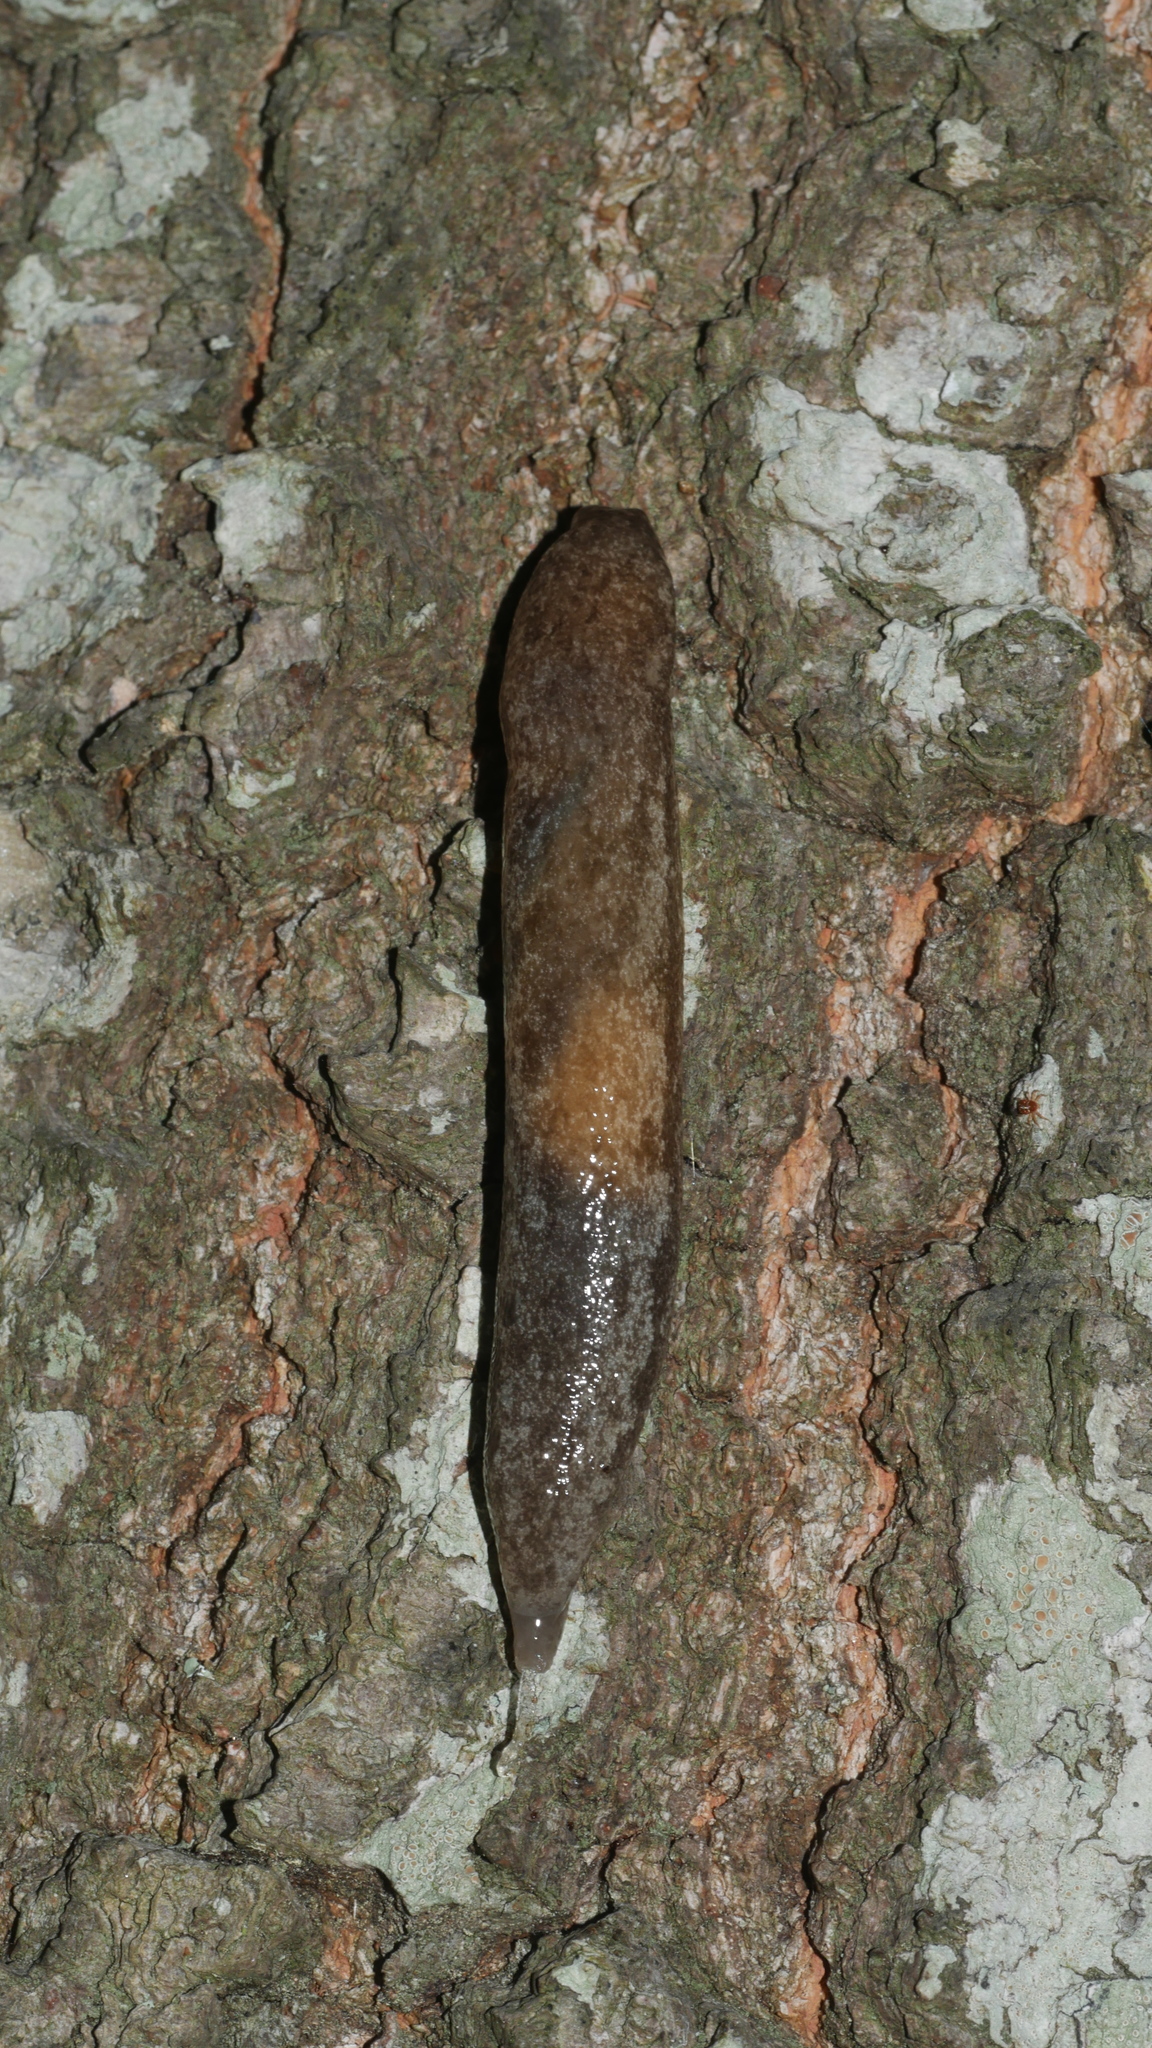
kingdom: Animalia
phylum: Mollusca
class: Gastropoda
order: Stylommatophora
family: Philomycidae
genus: Megapallifera
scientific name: Megapallifera mutabilis
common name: Changeable mantleslug
